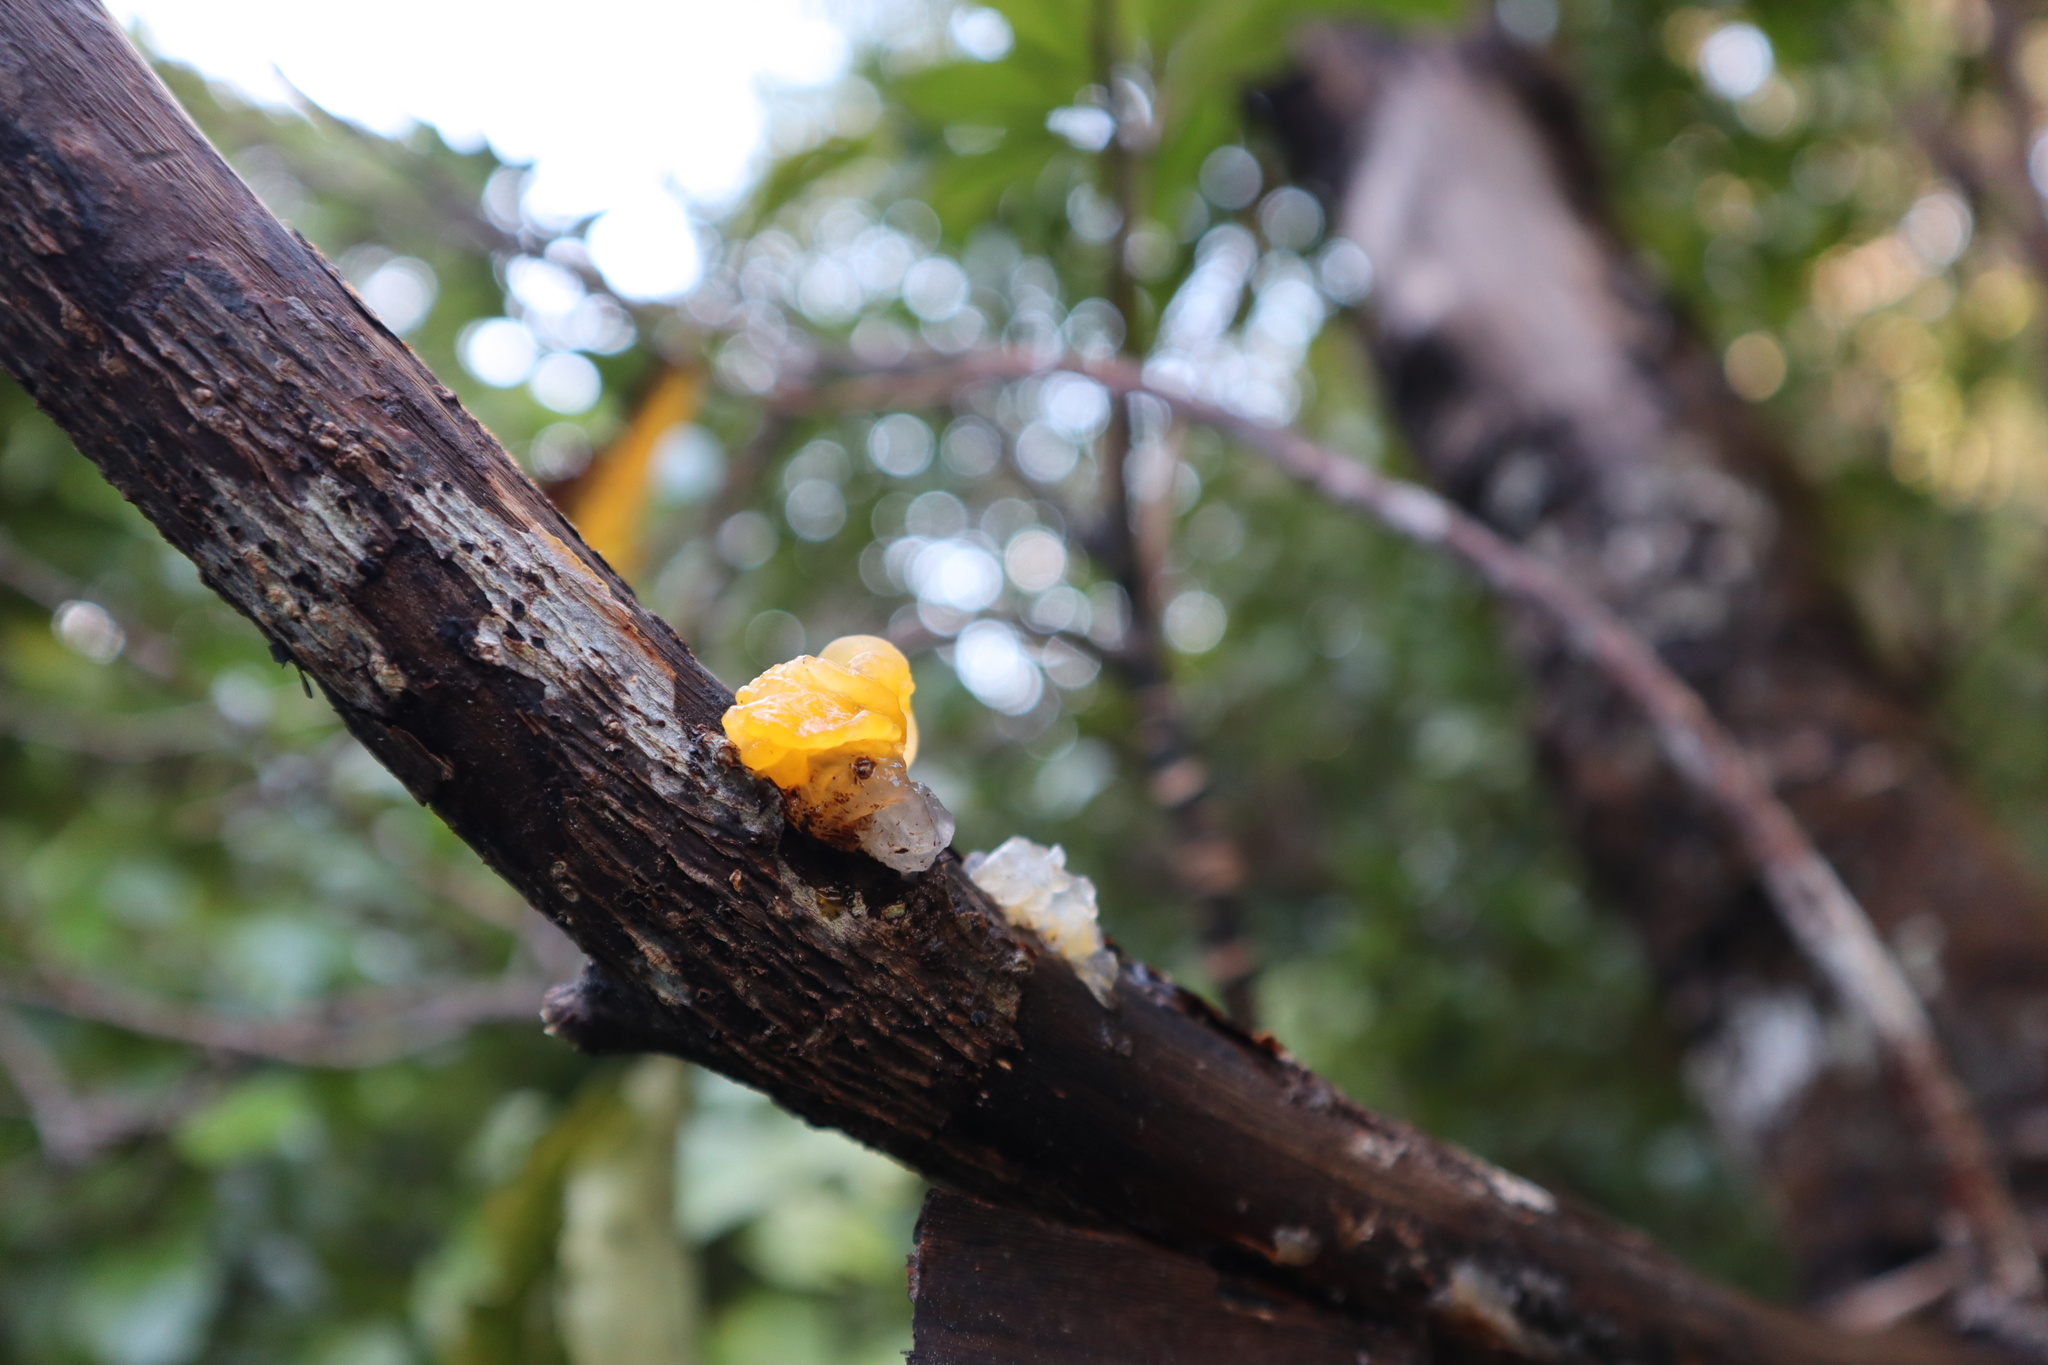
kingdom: Fungi
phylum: Basidiomycota
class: Tremellomycetes
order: Tremellales
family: Tremellaceae
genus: Tremella
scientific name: Tremella mesenterica
